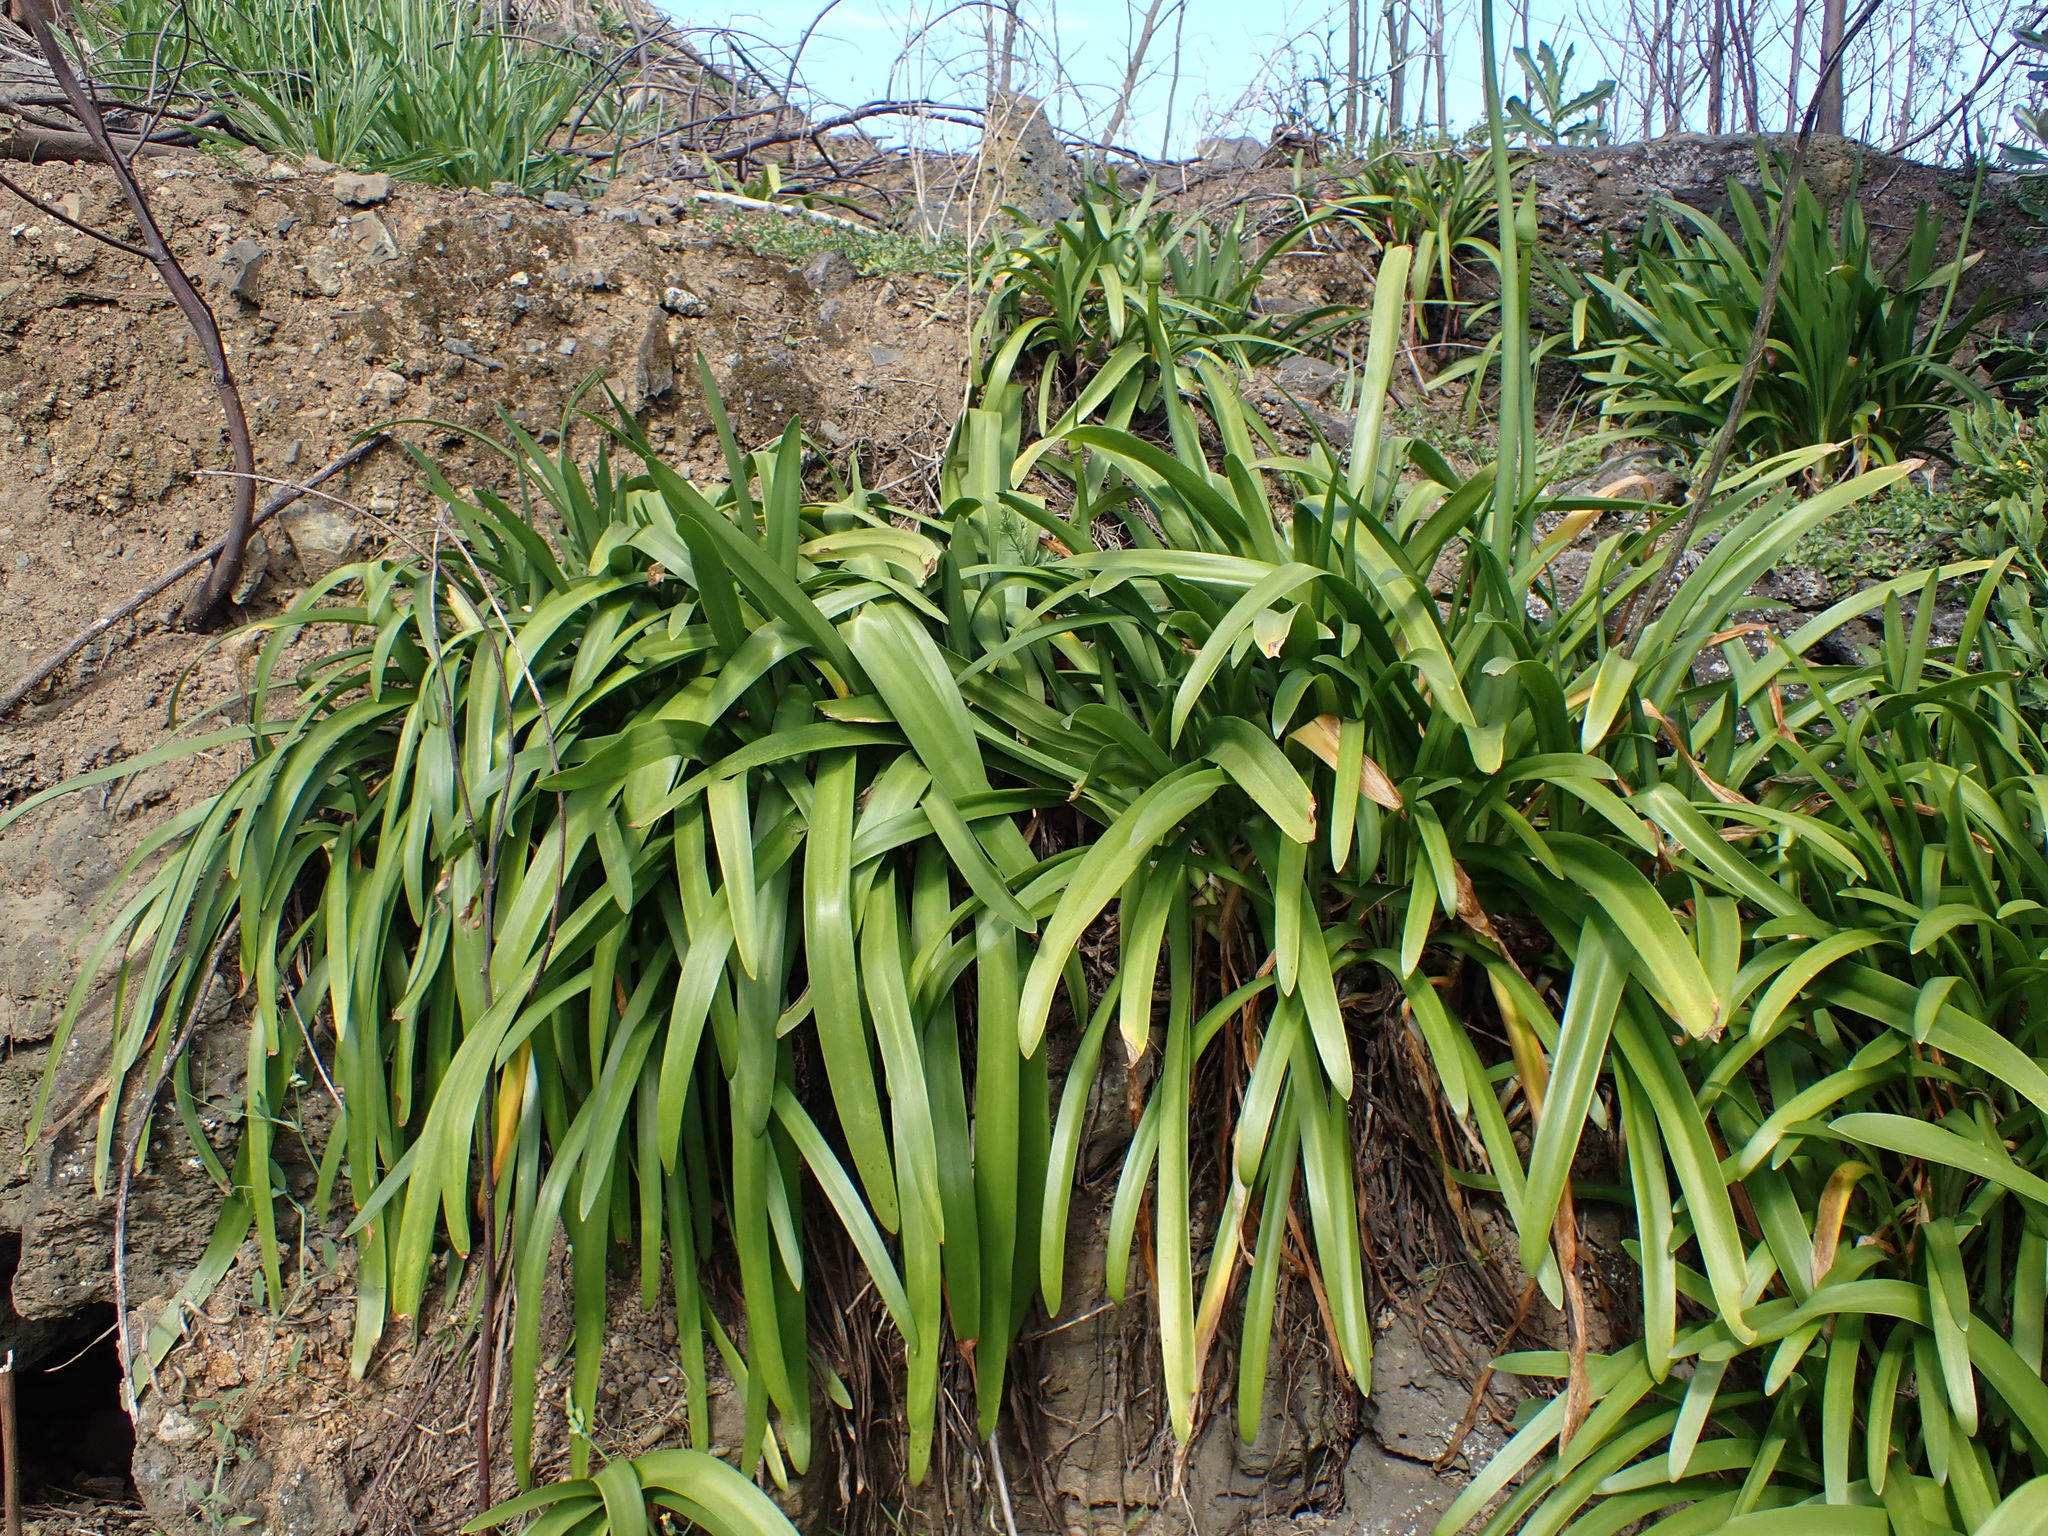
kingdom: Plantae
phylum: Tracheophyta
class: Liliopsida
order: Asparagales
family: Amaryllidaceae
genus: Agapanthus
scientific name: Agapanthus praecox
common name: African-lily
